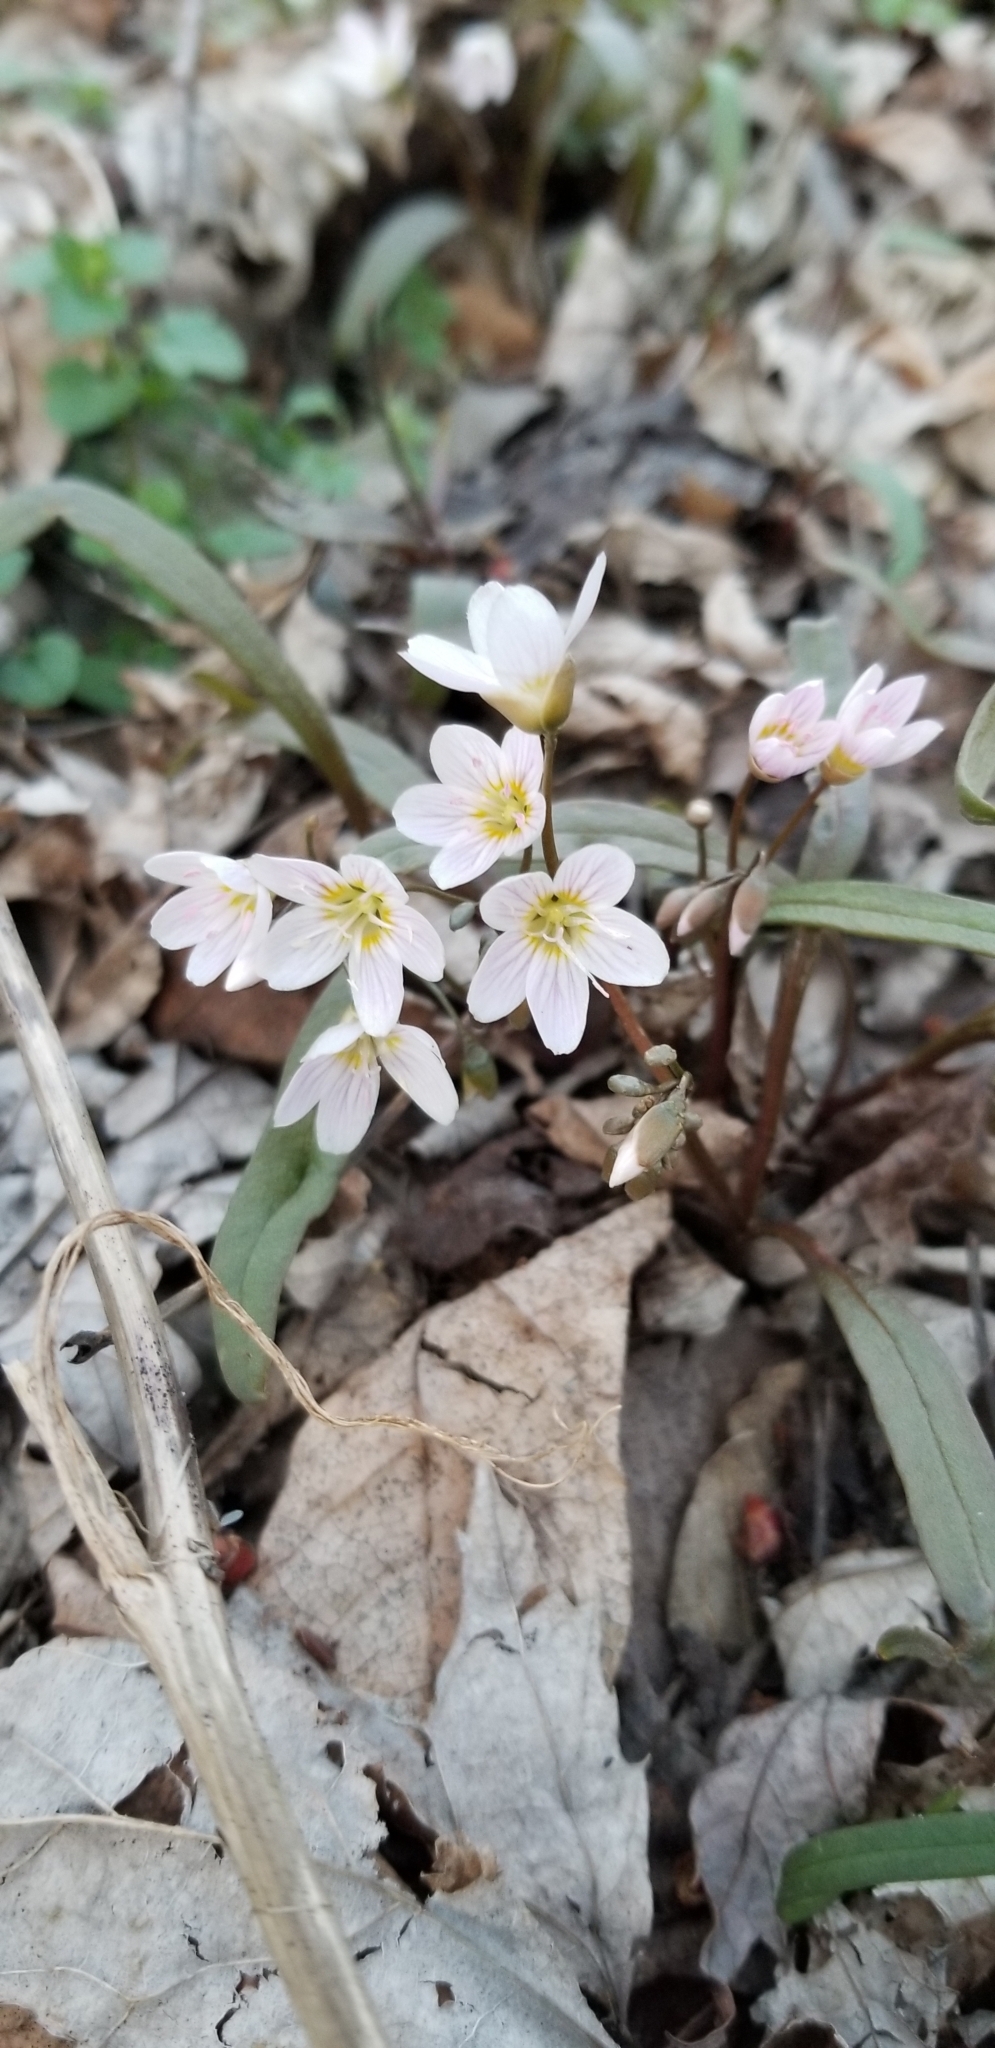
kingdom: Plantae
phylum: Tracheophyta
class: Magnoliopsida
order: Caryophyllales
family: Montiaceae
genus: Claytonia
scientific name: Claytonia virginica
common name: Virginia springbeauty
